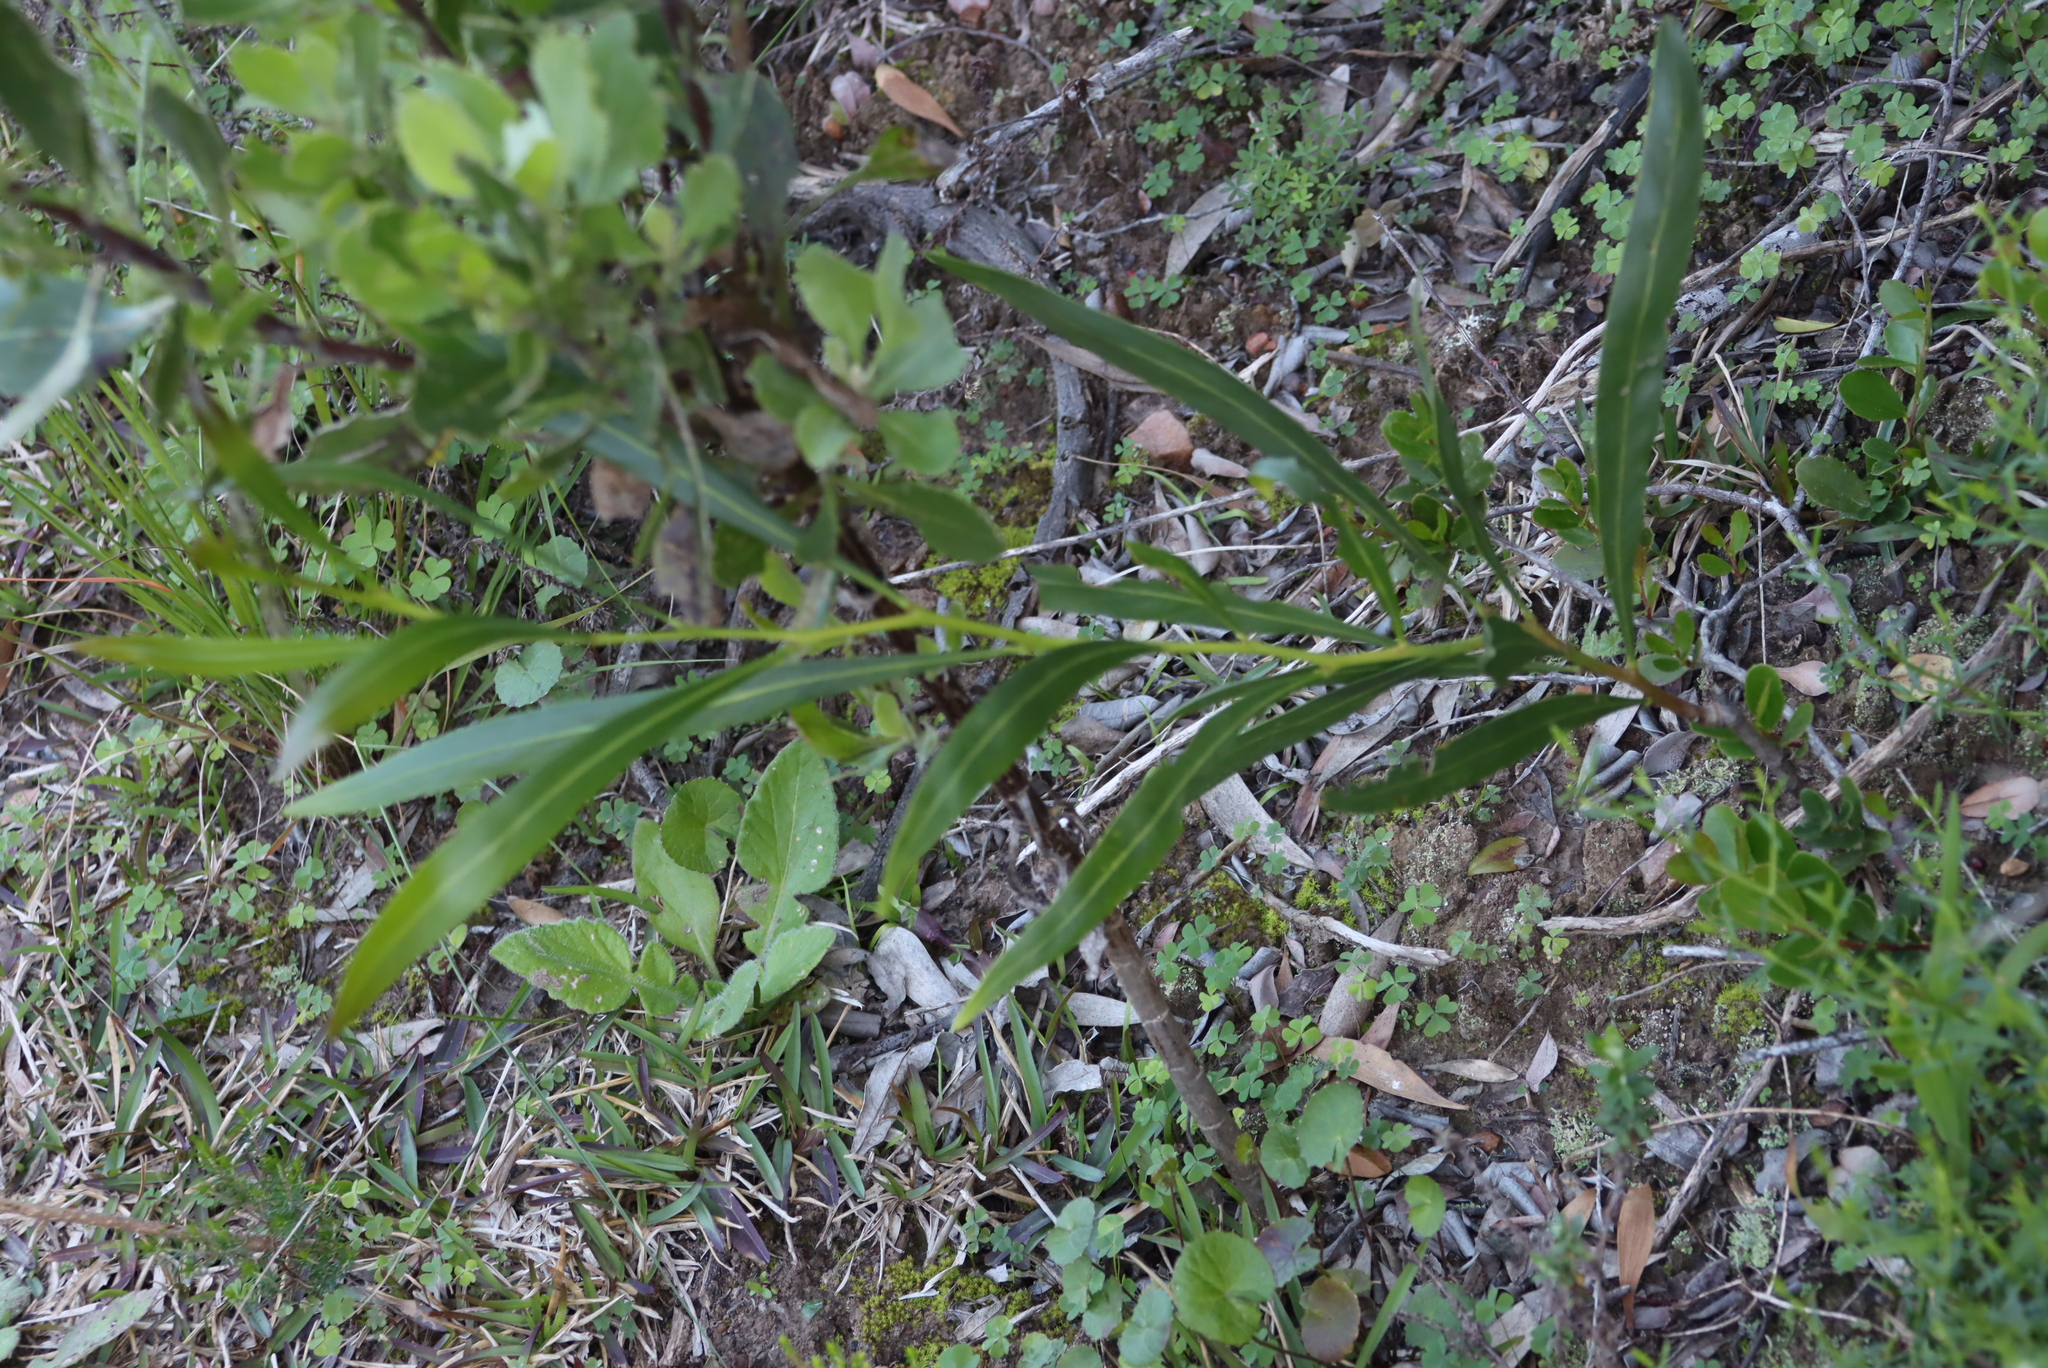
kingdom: Plantae
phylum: Tracheophyta
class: Magnoliopsida
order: Fabales
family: Fabaceae
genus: Acacia
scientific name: Acacia saligna
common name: Orange wattle
